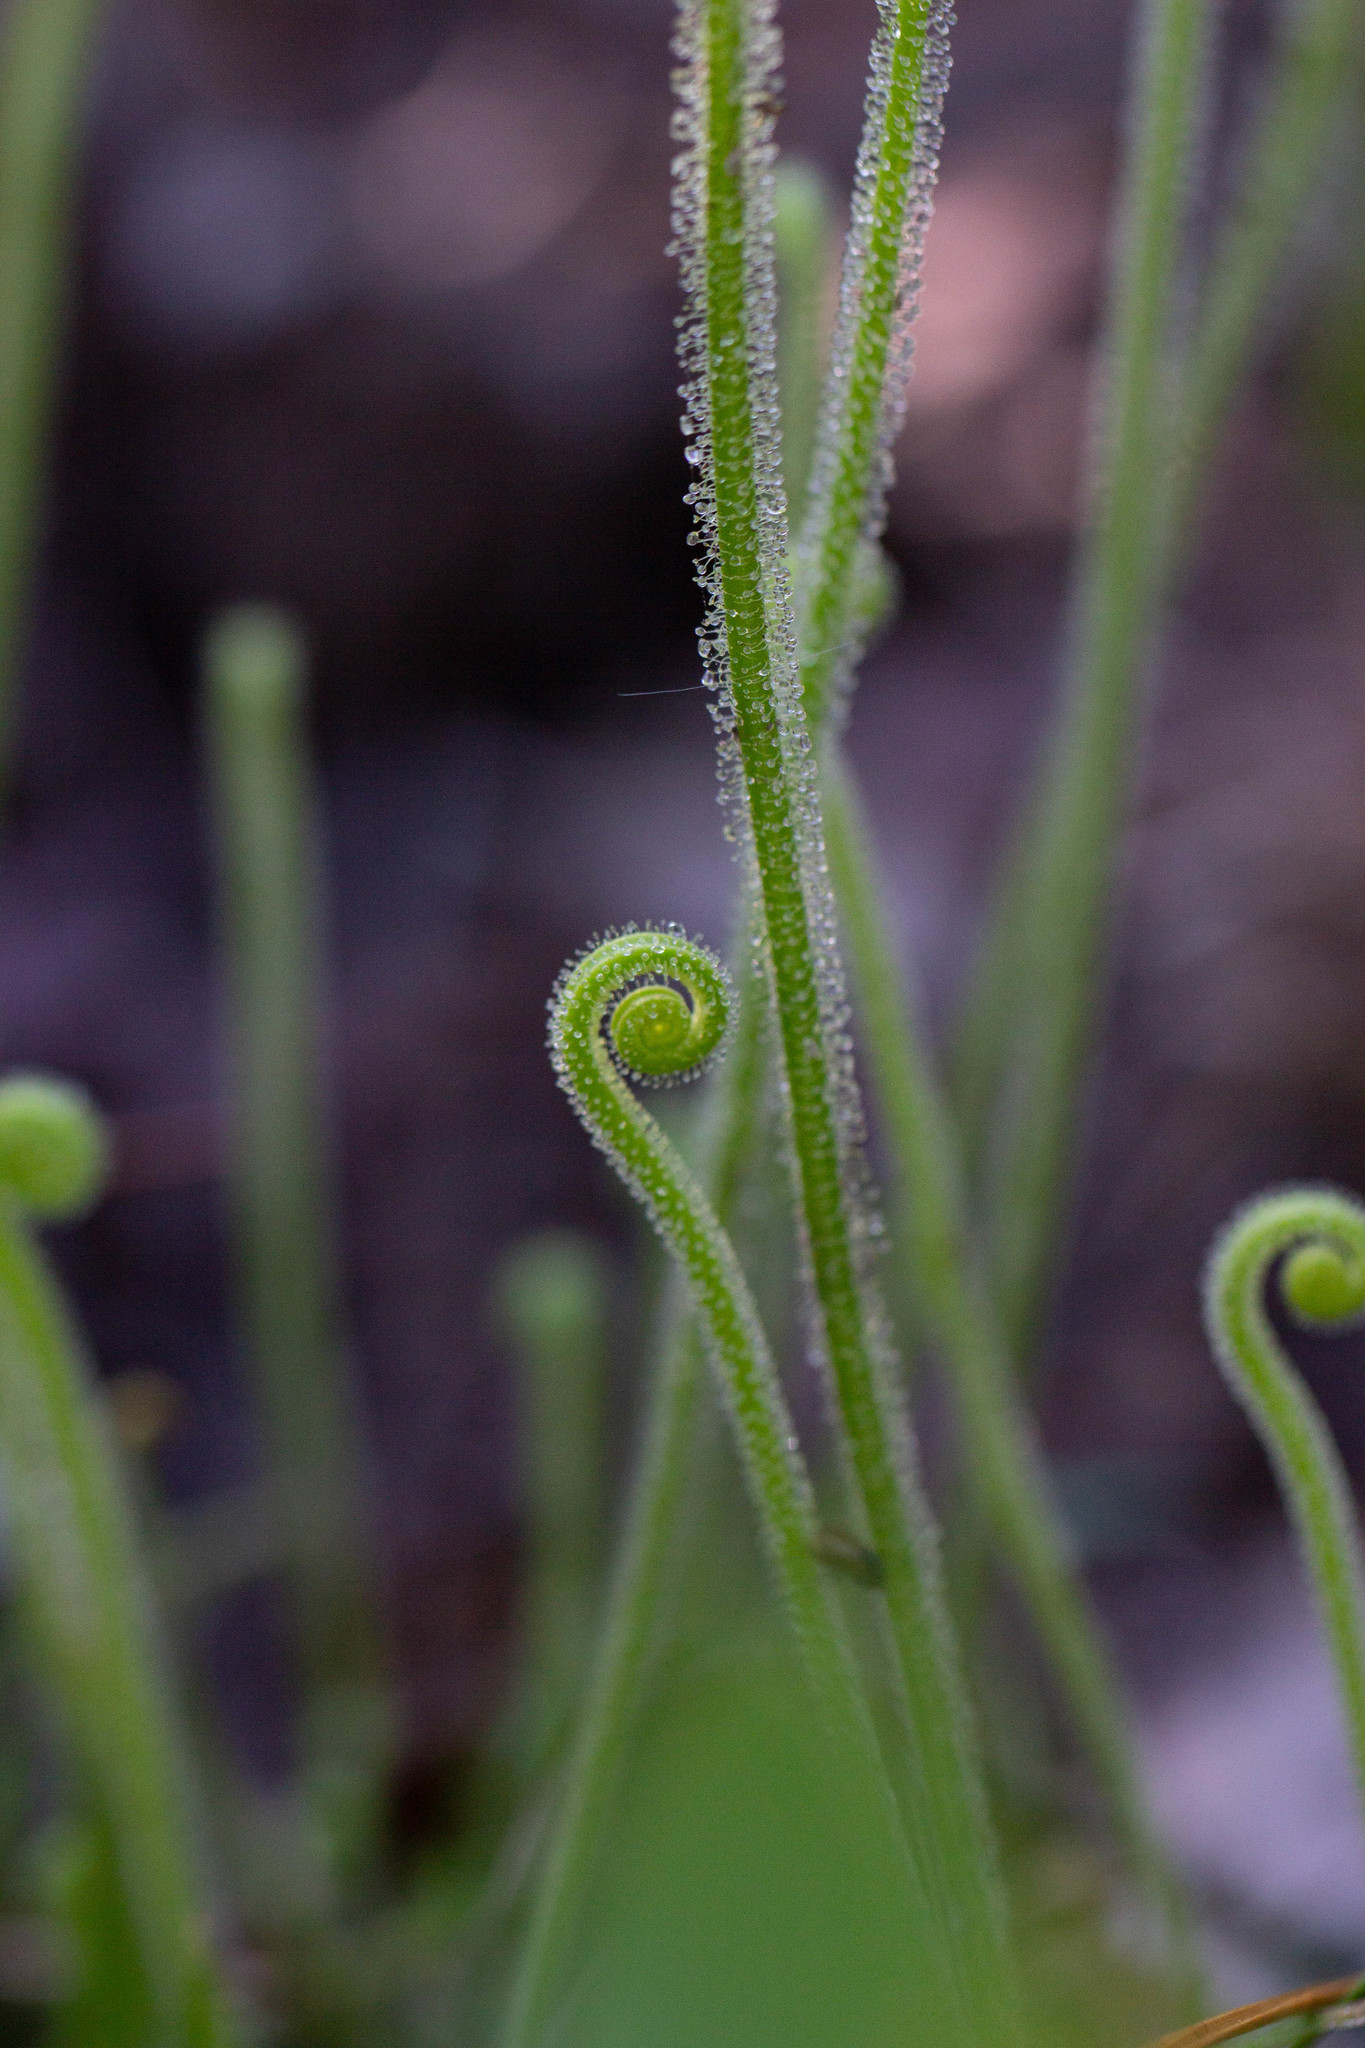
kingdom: Plantae
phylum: Tracheophyta
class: Magnoliopsida
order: Caryophyllales
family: Droseraceae
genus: Drosera
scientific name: Drosera filiformis
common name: Dew-thread
